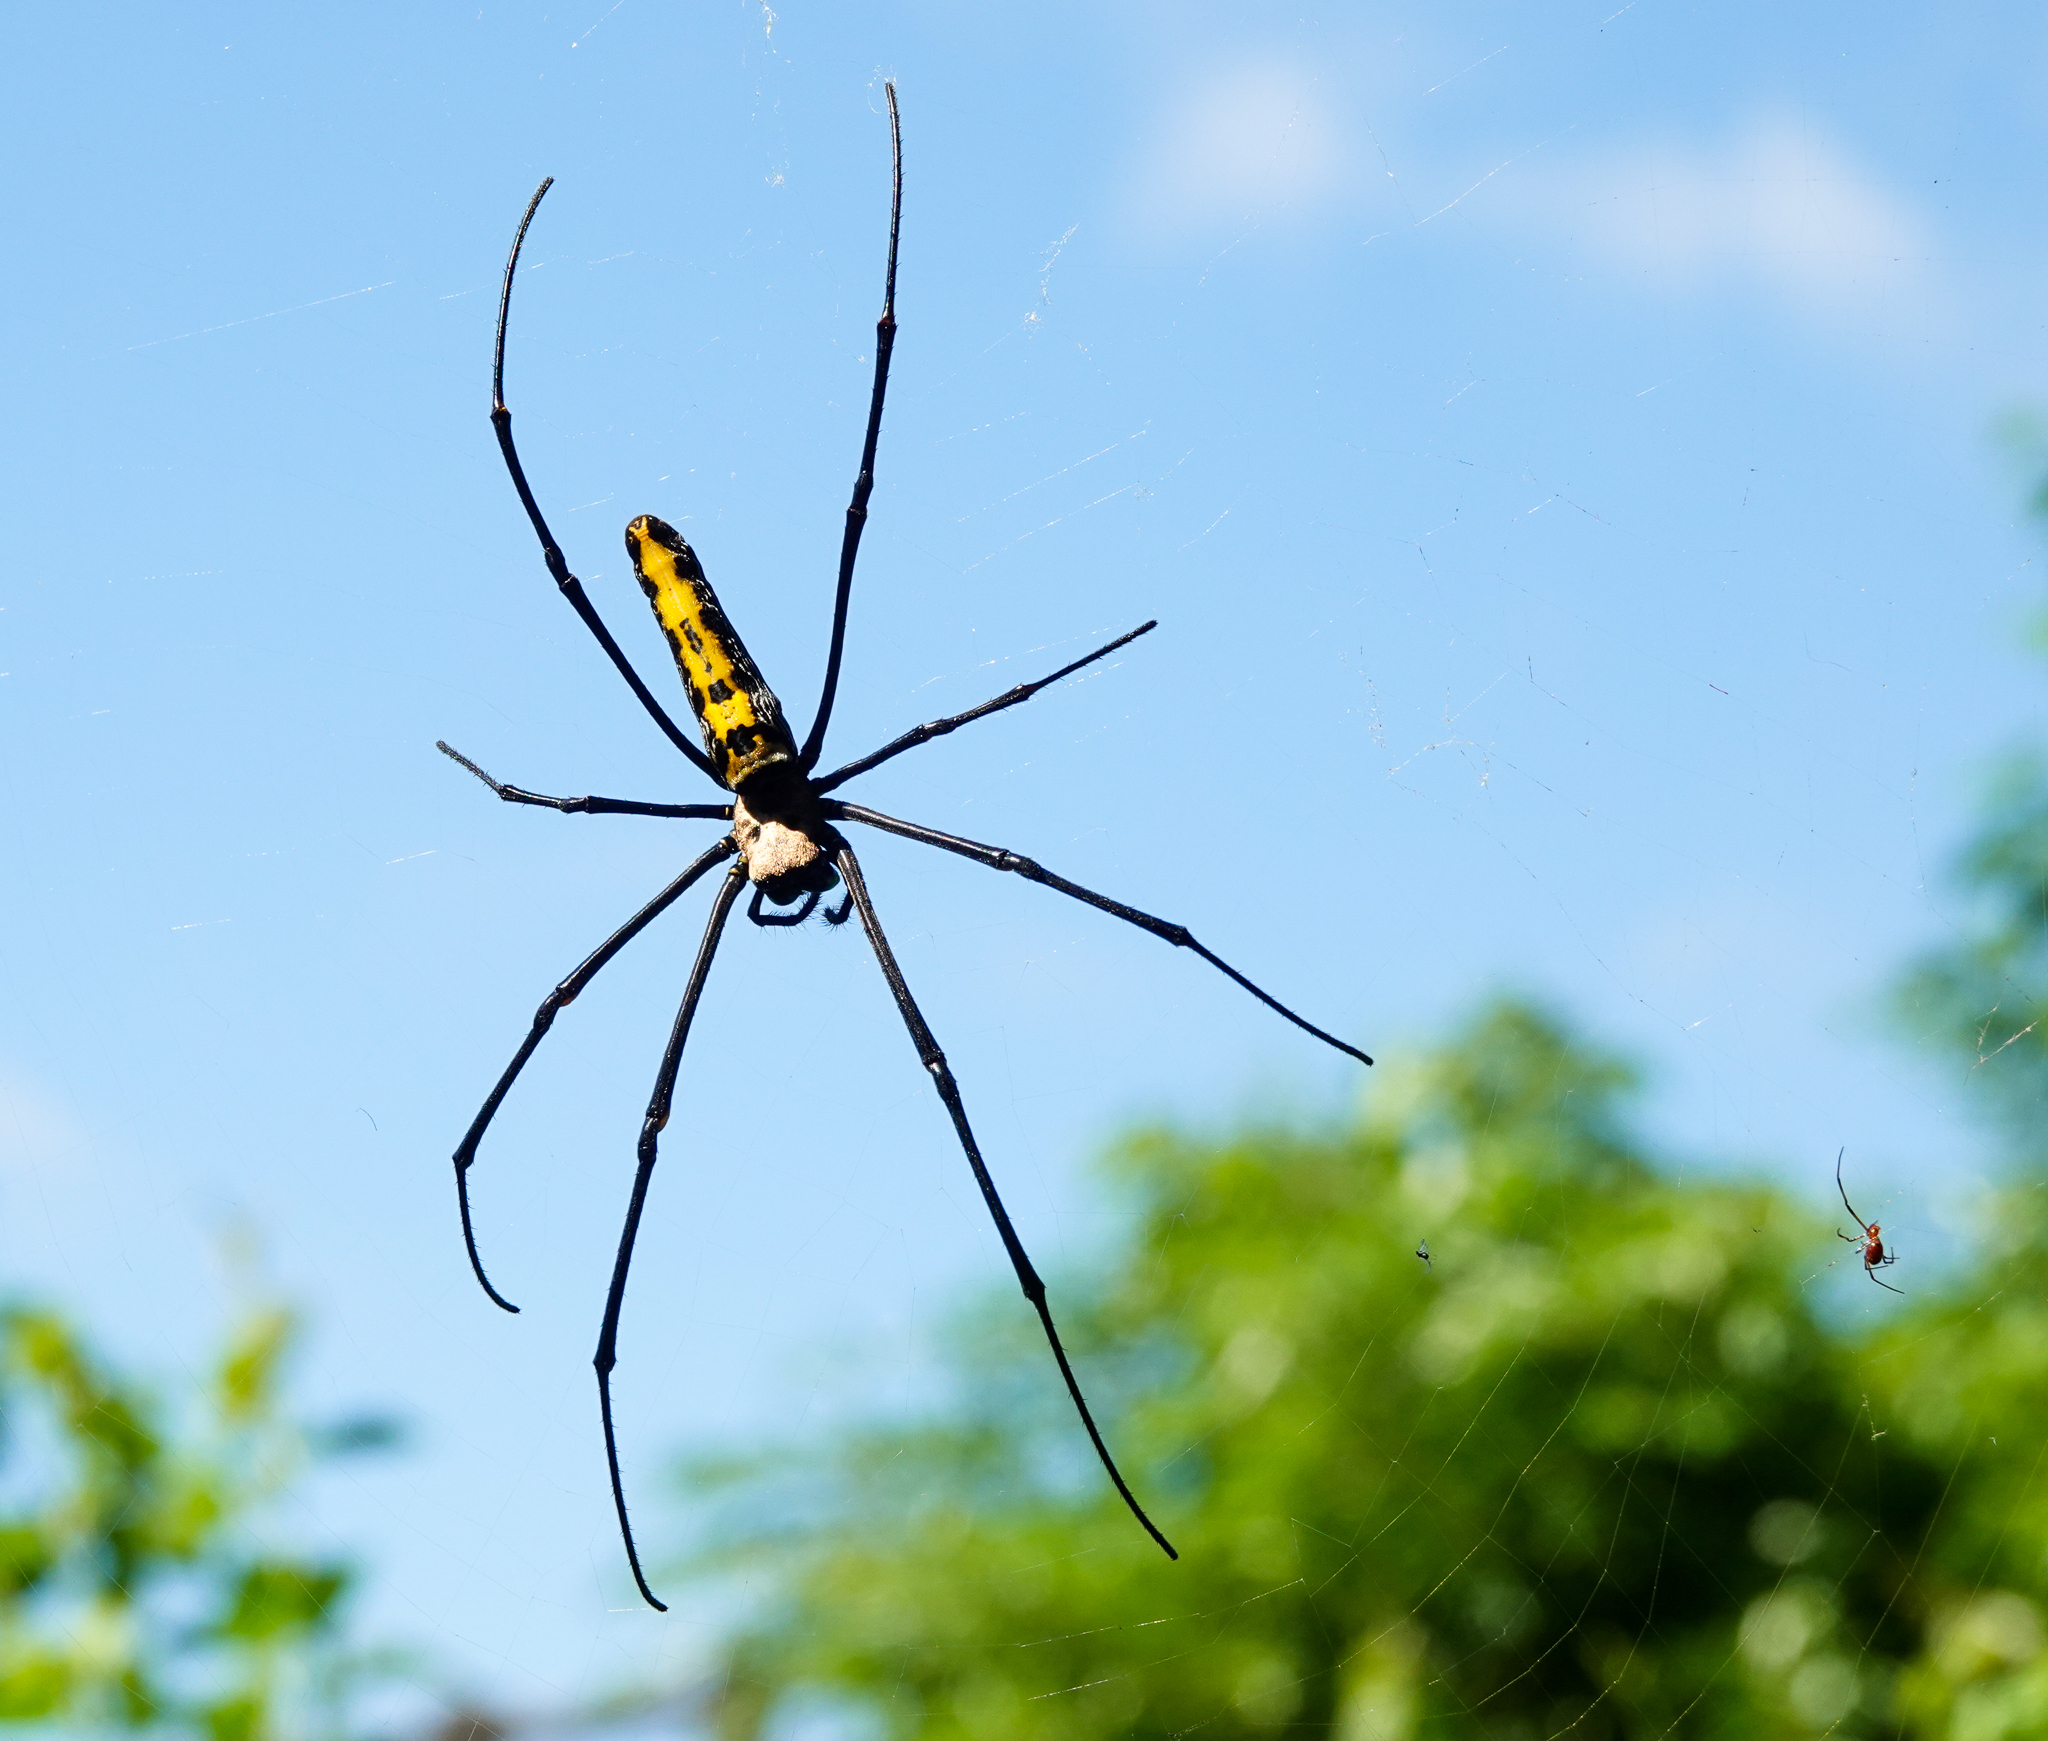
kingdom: Animalia
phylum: Arthropoda
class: Arachnida
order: Araneae
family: Araneidae
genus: Nephila
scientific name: Nephila pilipes
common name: Giant golden orb weaver
